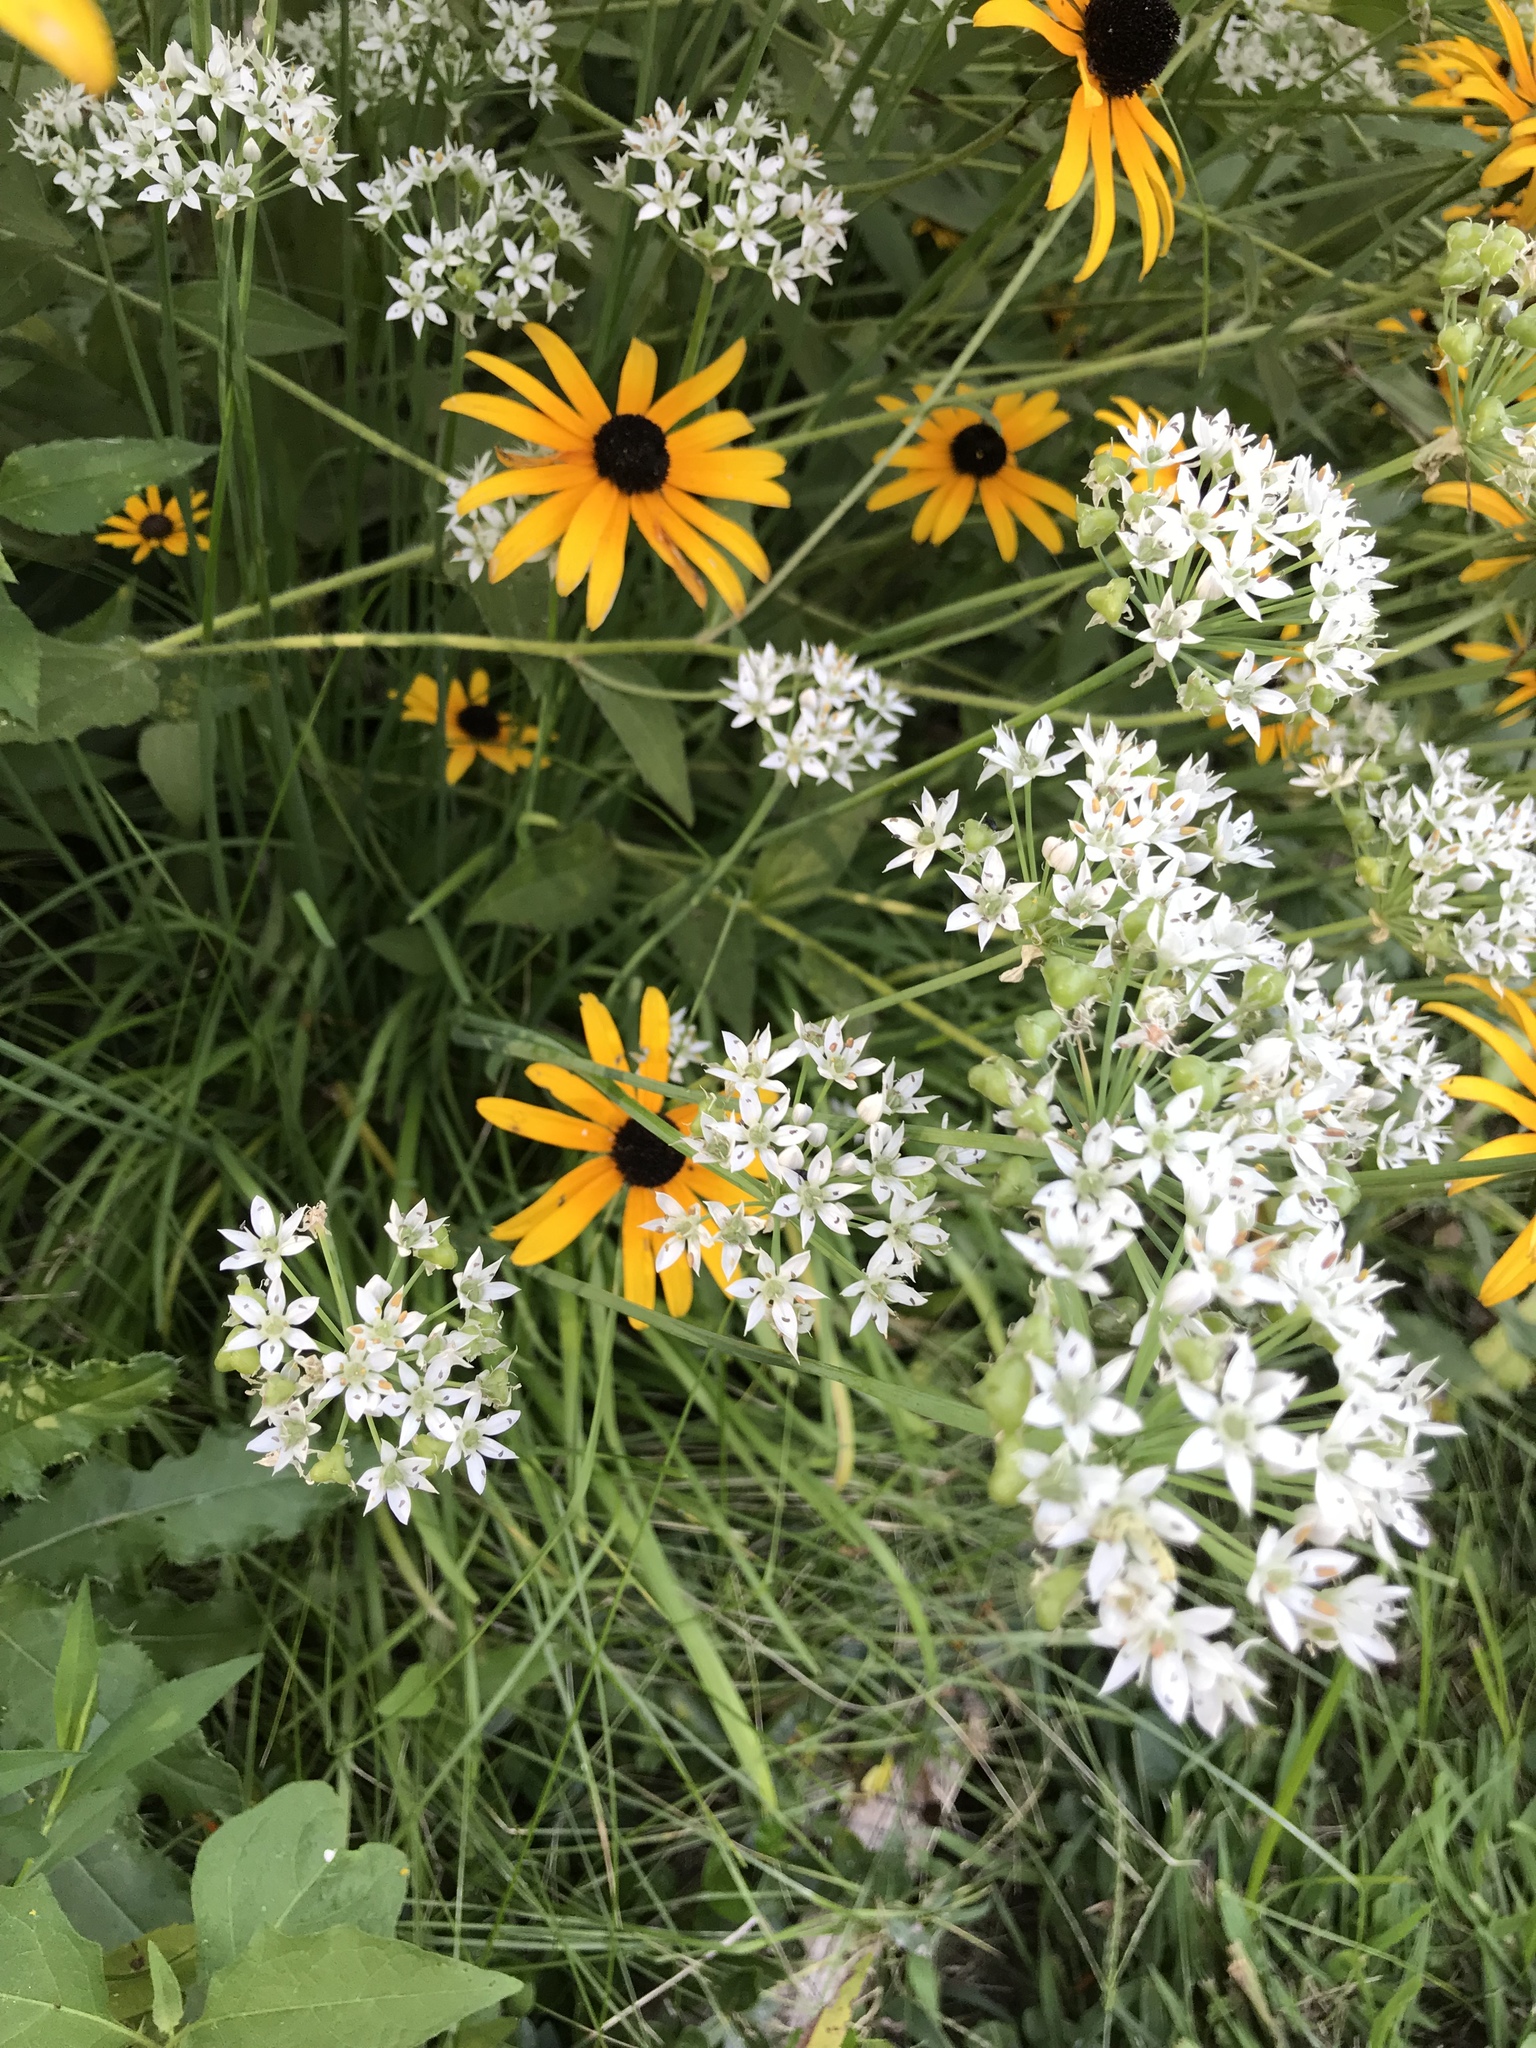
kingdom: Plantae
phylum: Tracheophyta
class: Liliopsida
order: Asparagales
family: Amaryllidaceae
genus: Allium
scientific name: Allium tuberosum
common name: Chinese chives
